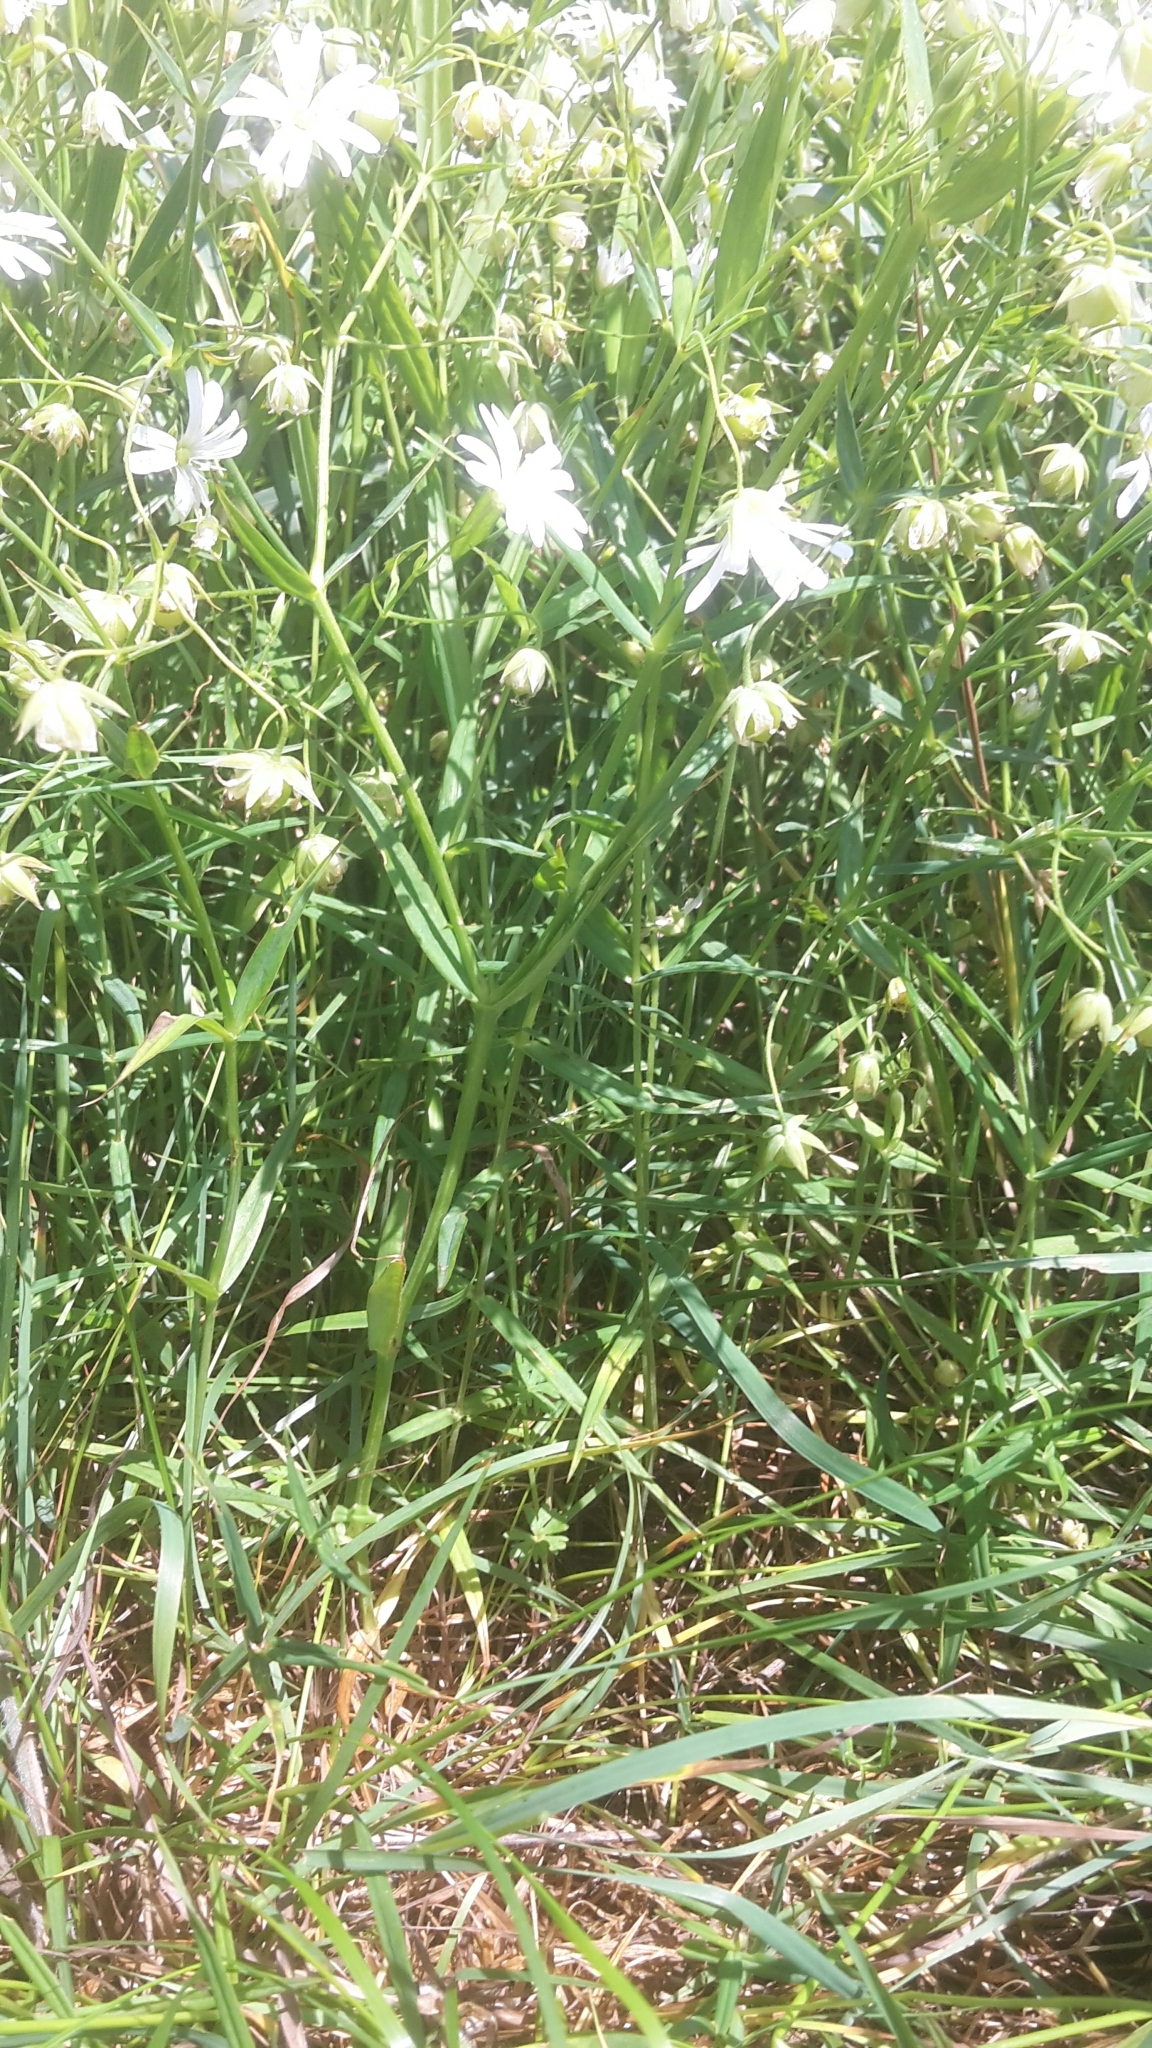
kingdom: Plantae
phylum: Tracheophyta
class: Magnoliopsida
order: Caryophyllales
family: Caryophyllaceae
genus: Rabelera
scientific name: Rabelera holostea
